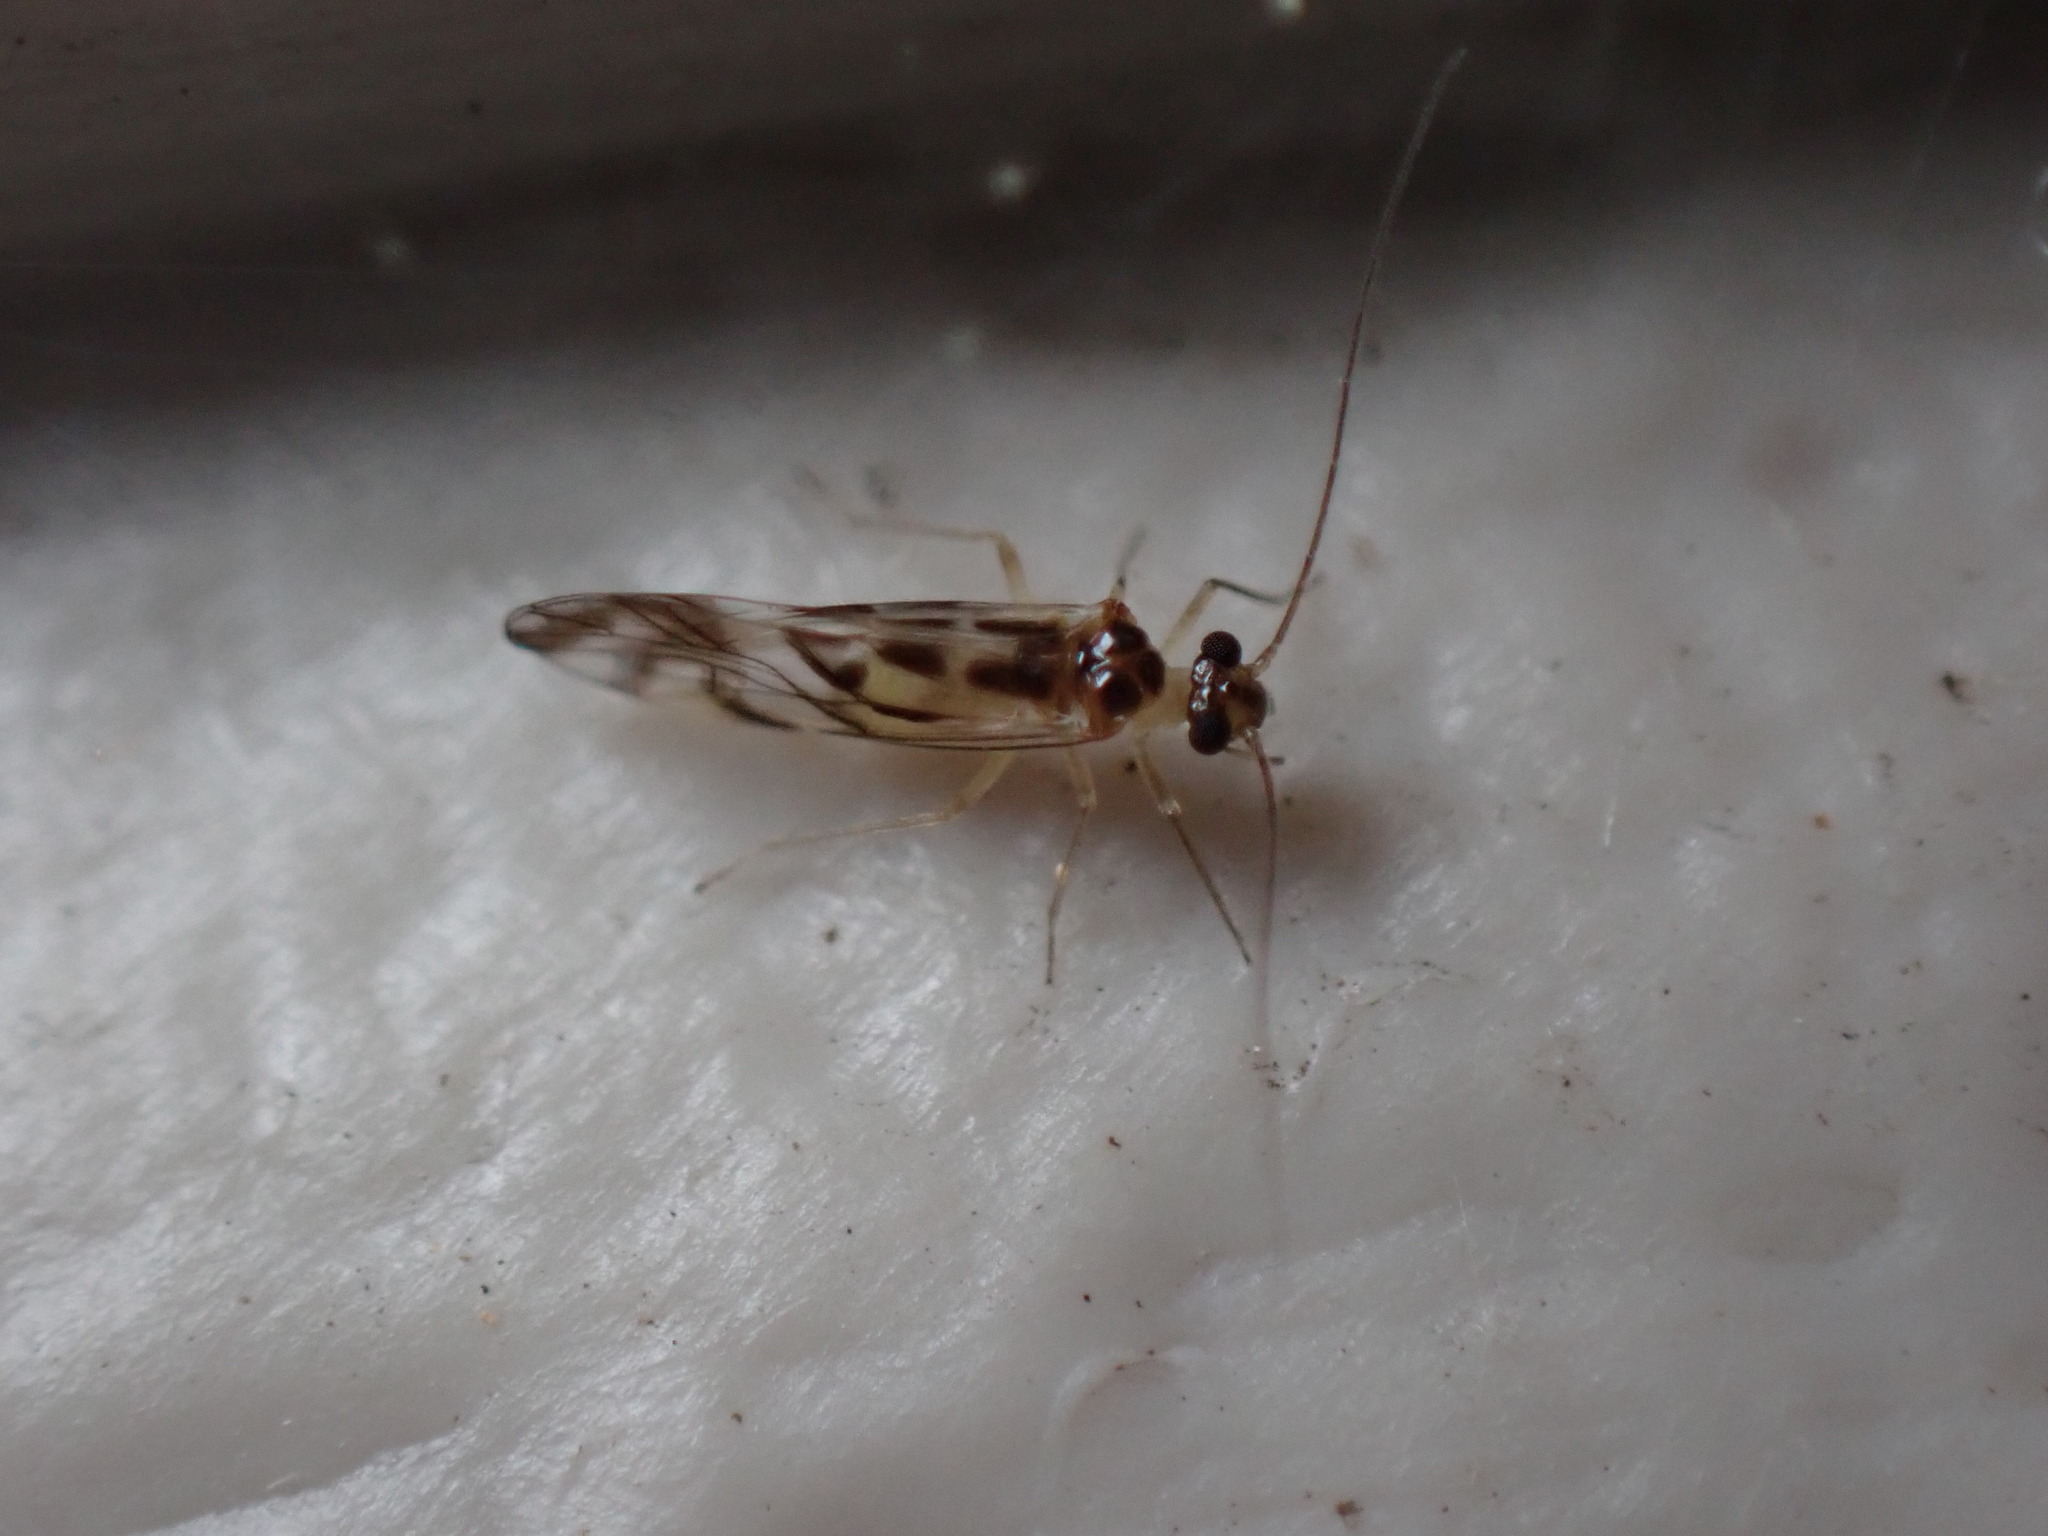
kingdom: Animalia
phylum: Arthropoda
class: Insecta
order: Psocodea
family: Stenopsocidae
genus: Graphopsocus
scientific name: Graphopsocus cruciatus
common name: Lizard bark louse
